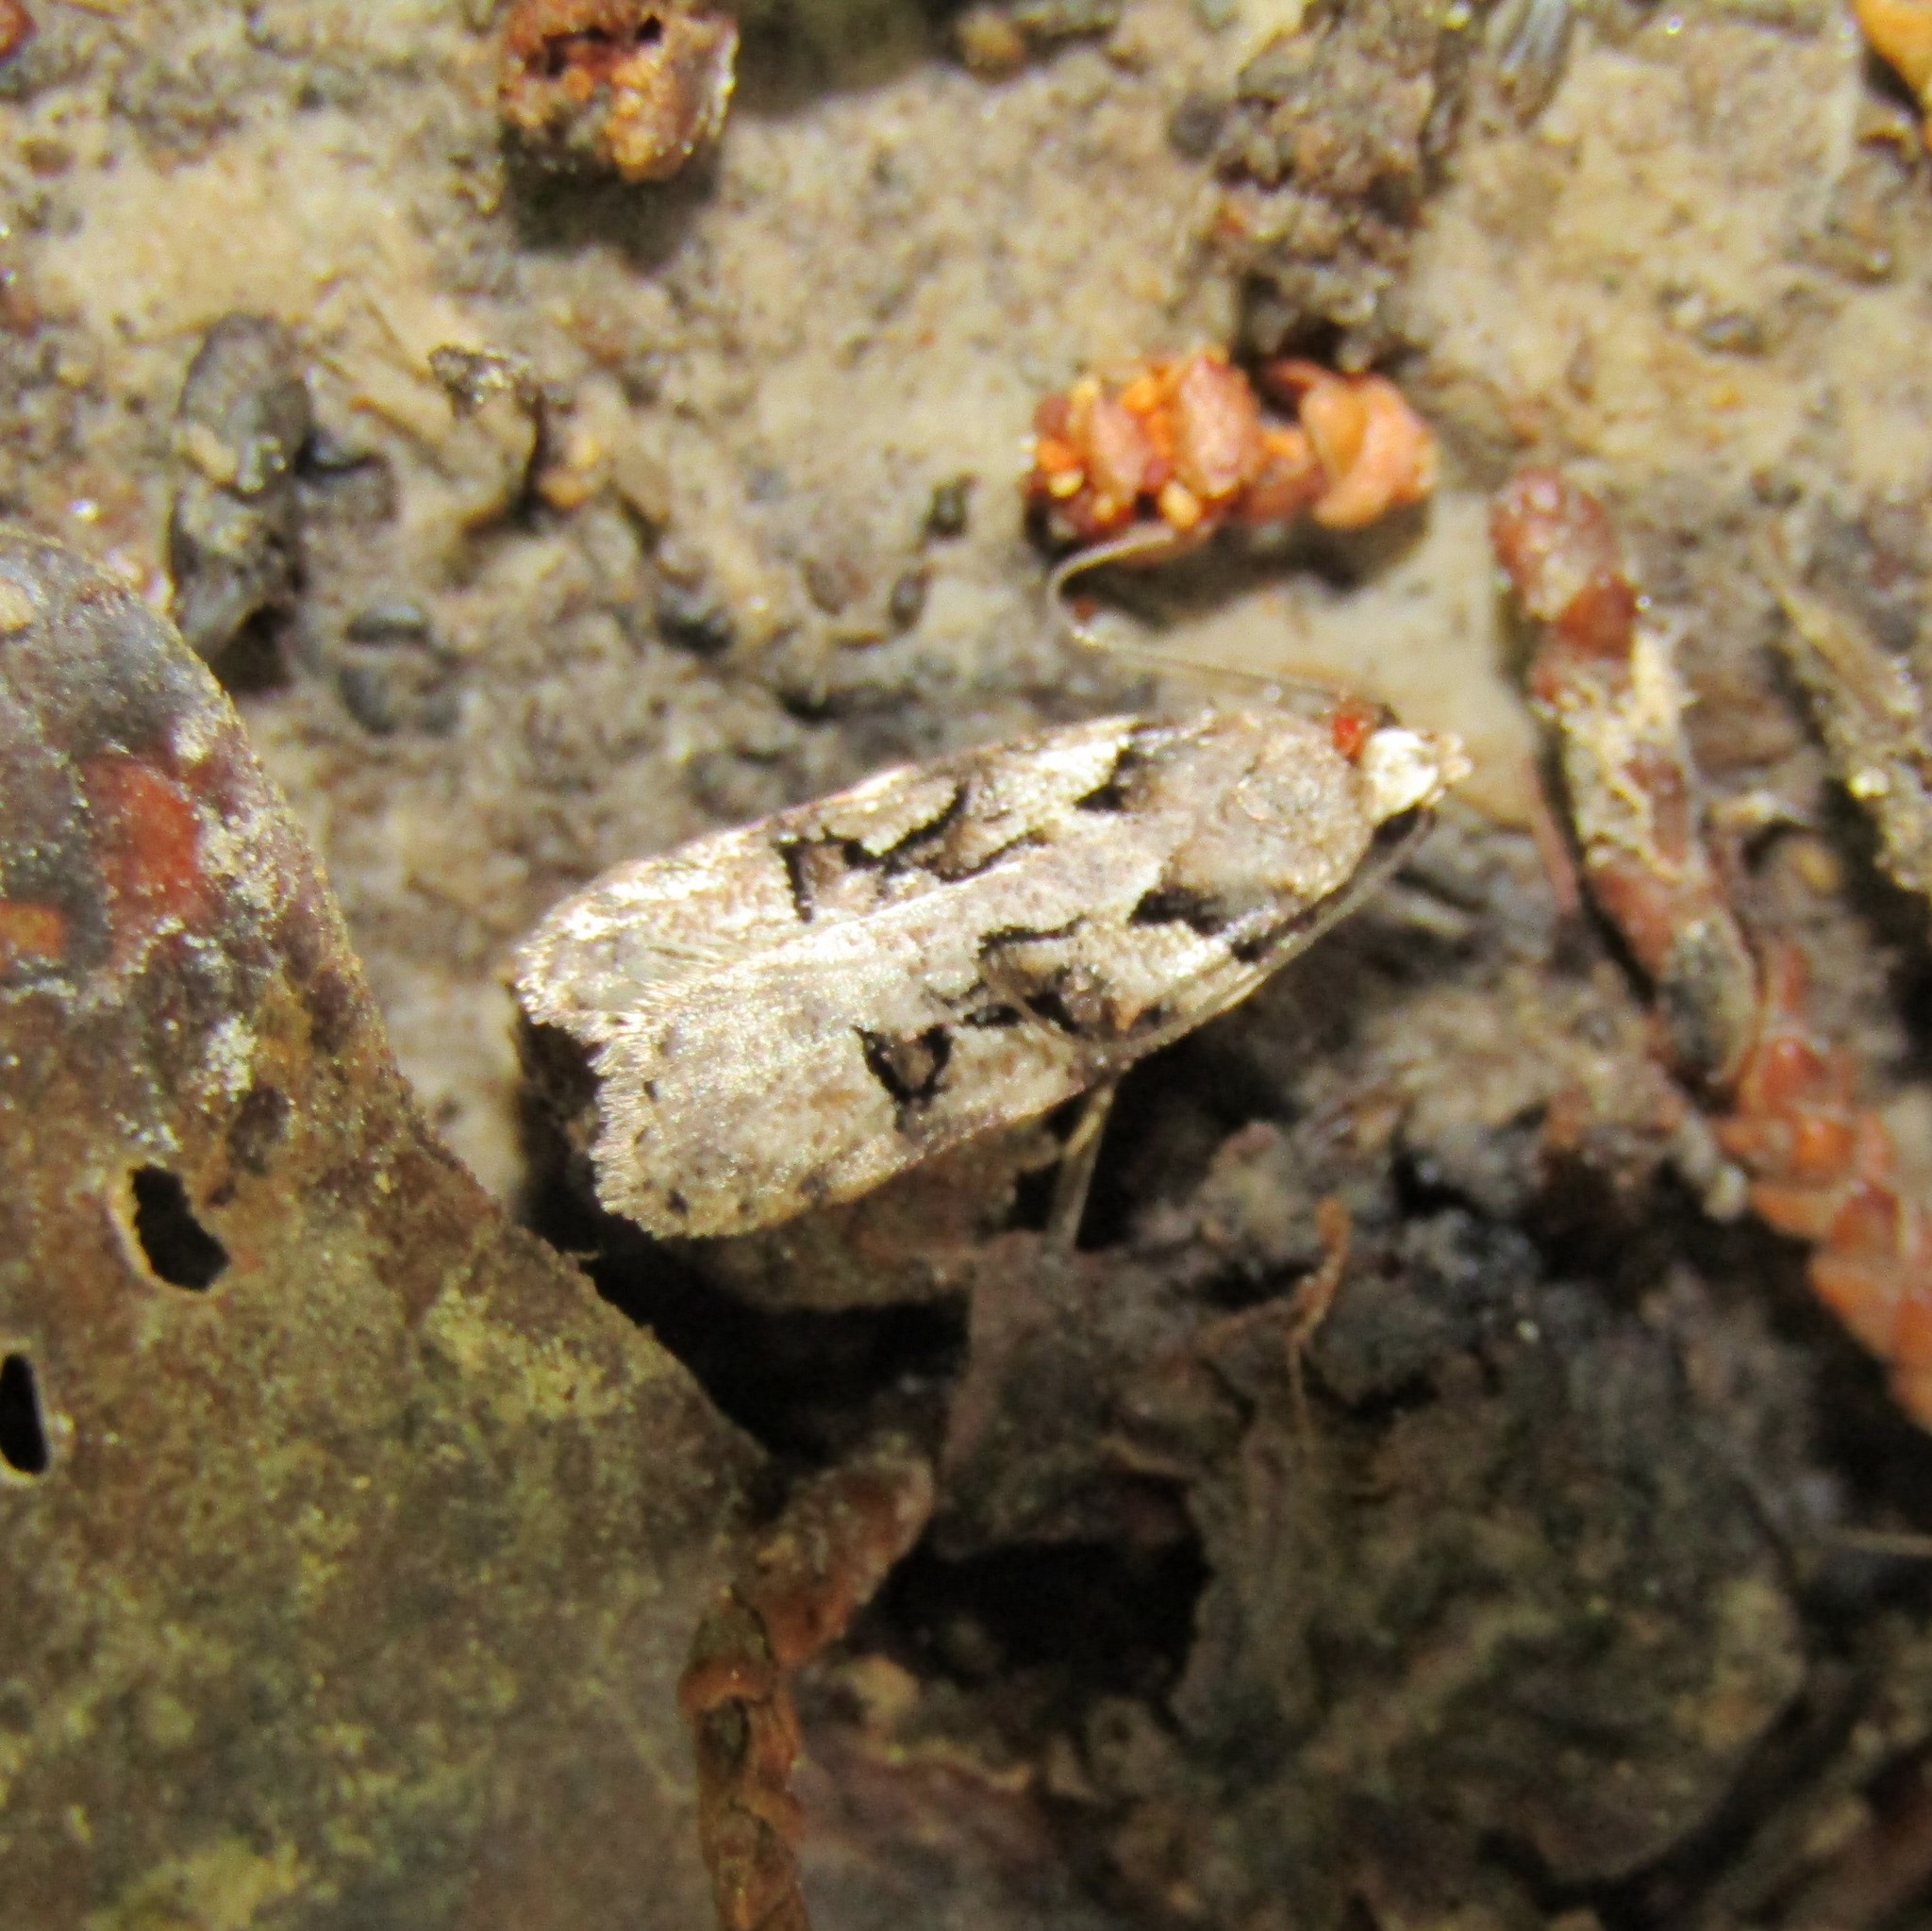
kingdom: Animalia
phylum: Arthropoda
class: Insecta
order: Lepidoptera
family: Oecophoridae
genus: Izatha
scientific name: Izatha epiphanes
